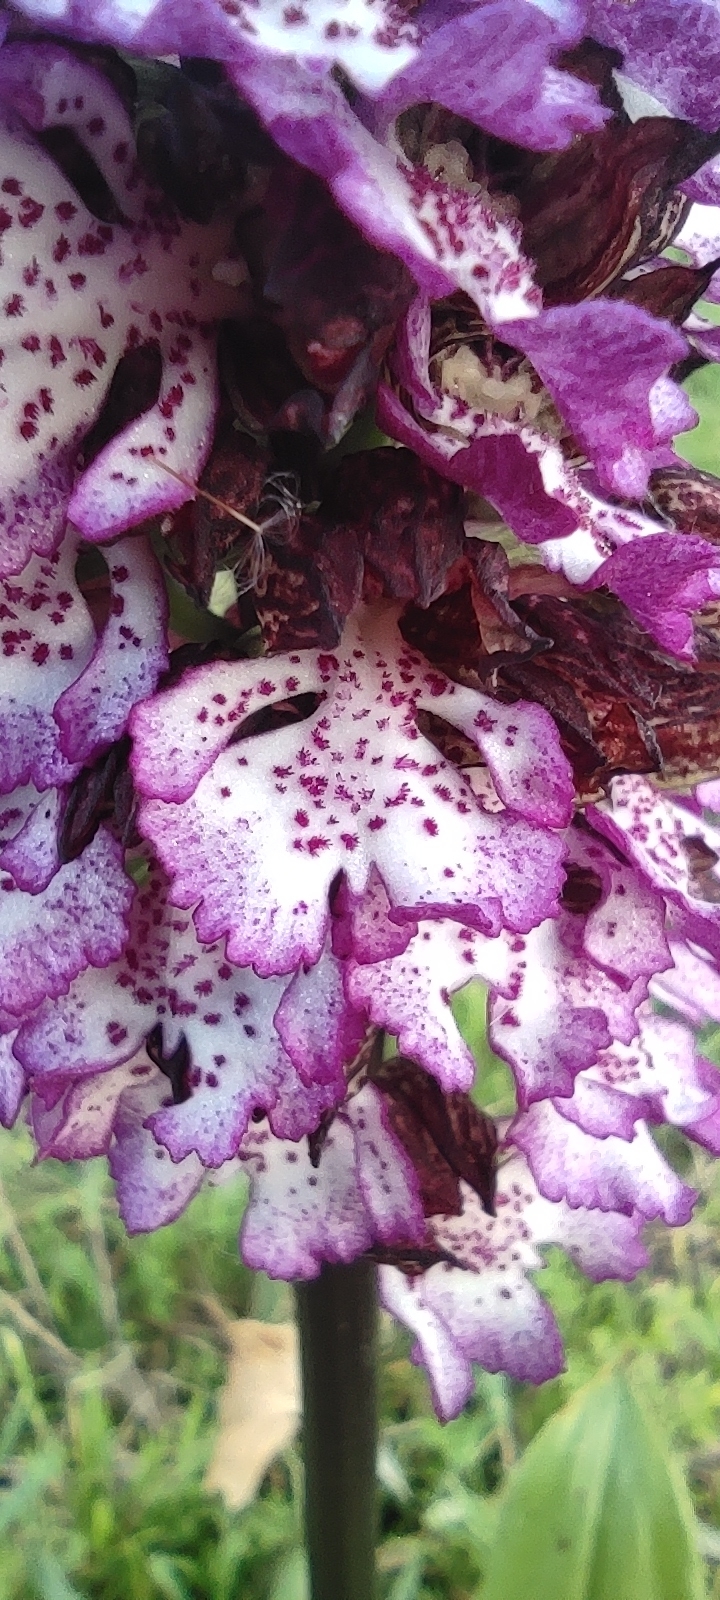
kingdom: Plantae
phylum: Tracheophyta
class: Liliopsida
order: Asparagales
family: Orchidaceae
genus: Orchis
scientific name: Orchis purpurea
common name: Lady orchid
